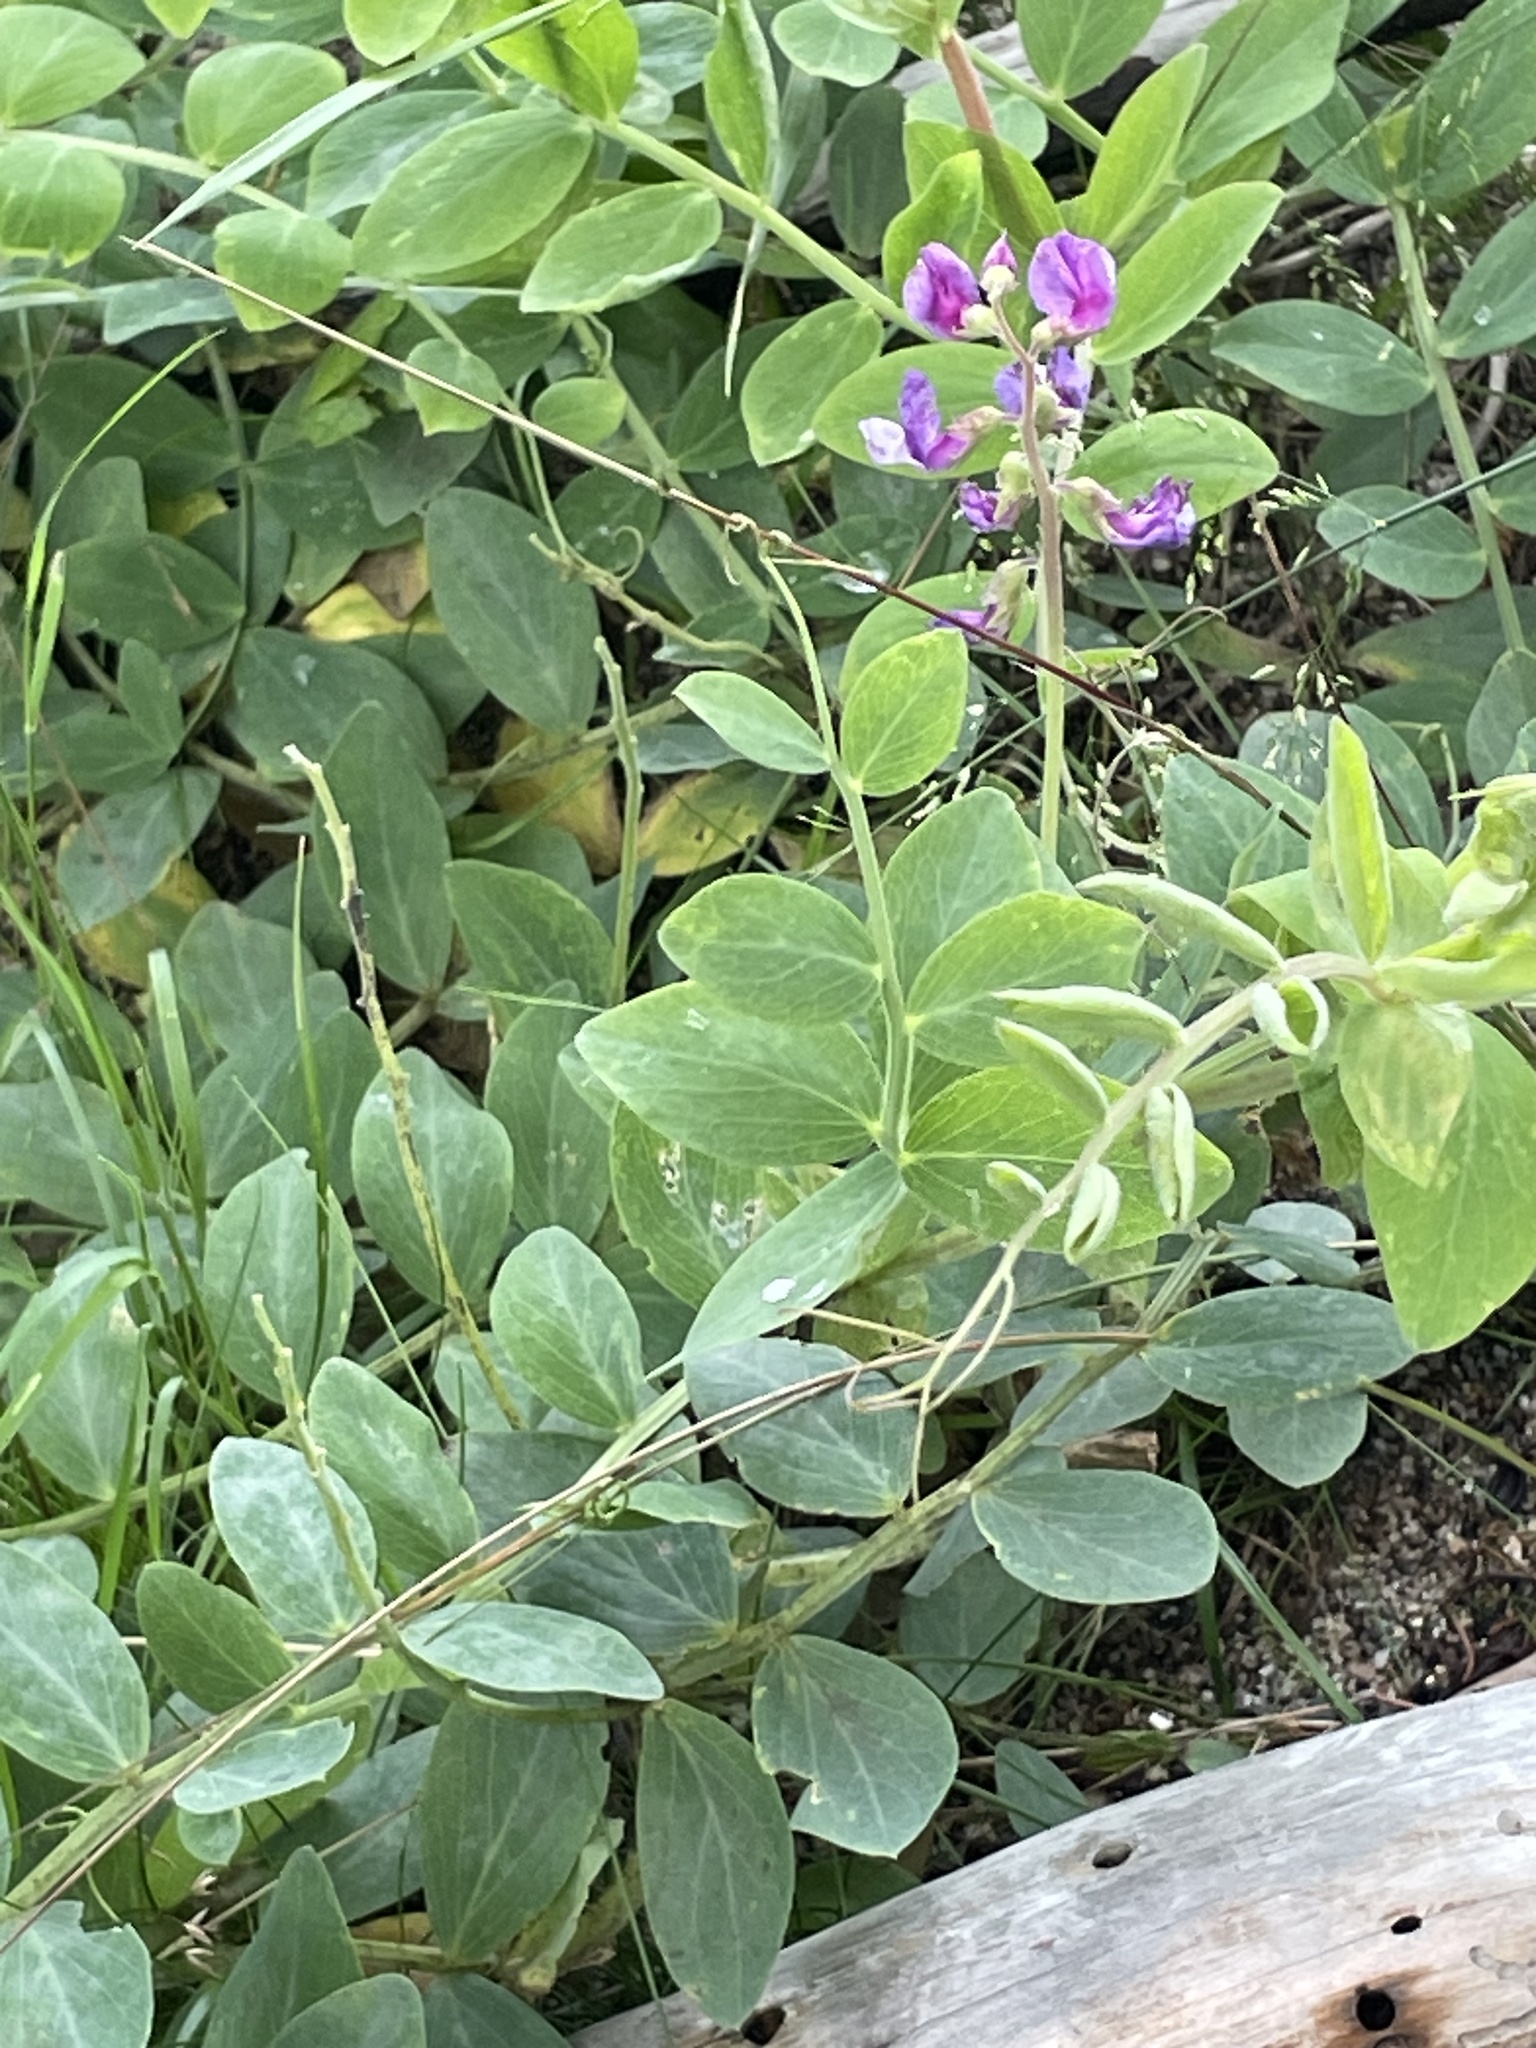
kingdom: Plantae
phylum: Tracheophyta
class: Magnoliopsida
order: Fabales
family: Fabaceae
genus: Lathyrus
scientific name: Lathyrus japonicus
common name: Sea pea
